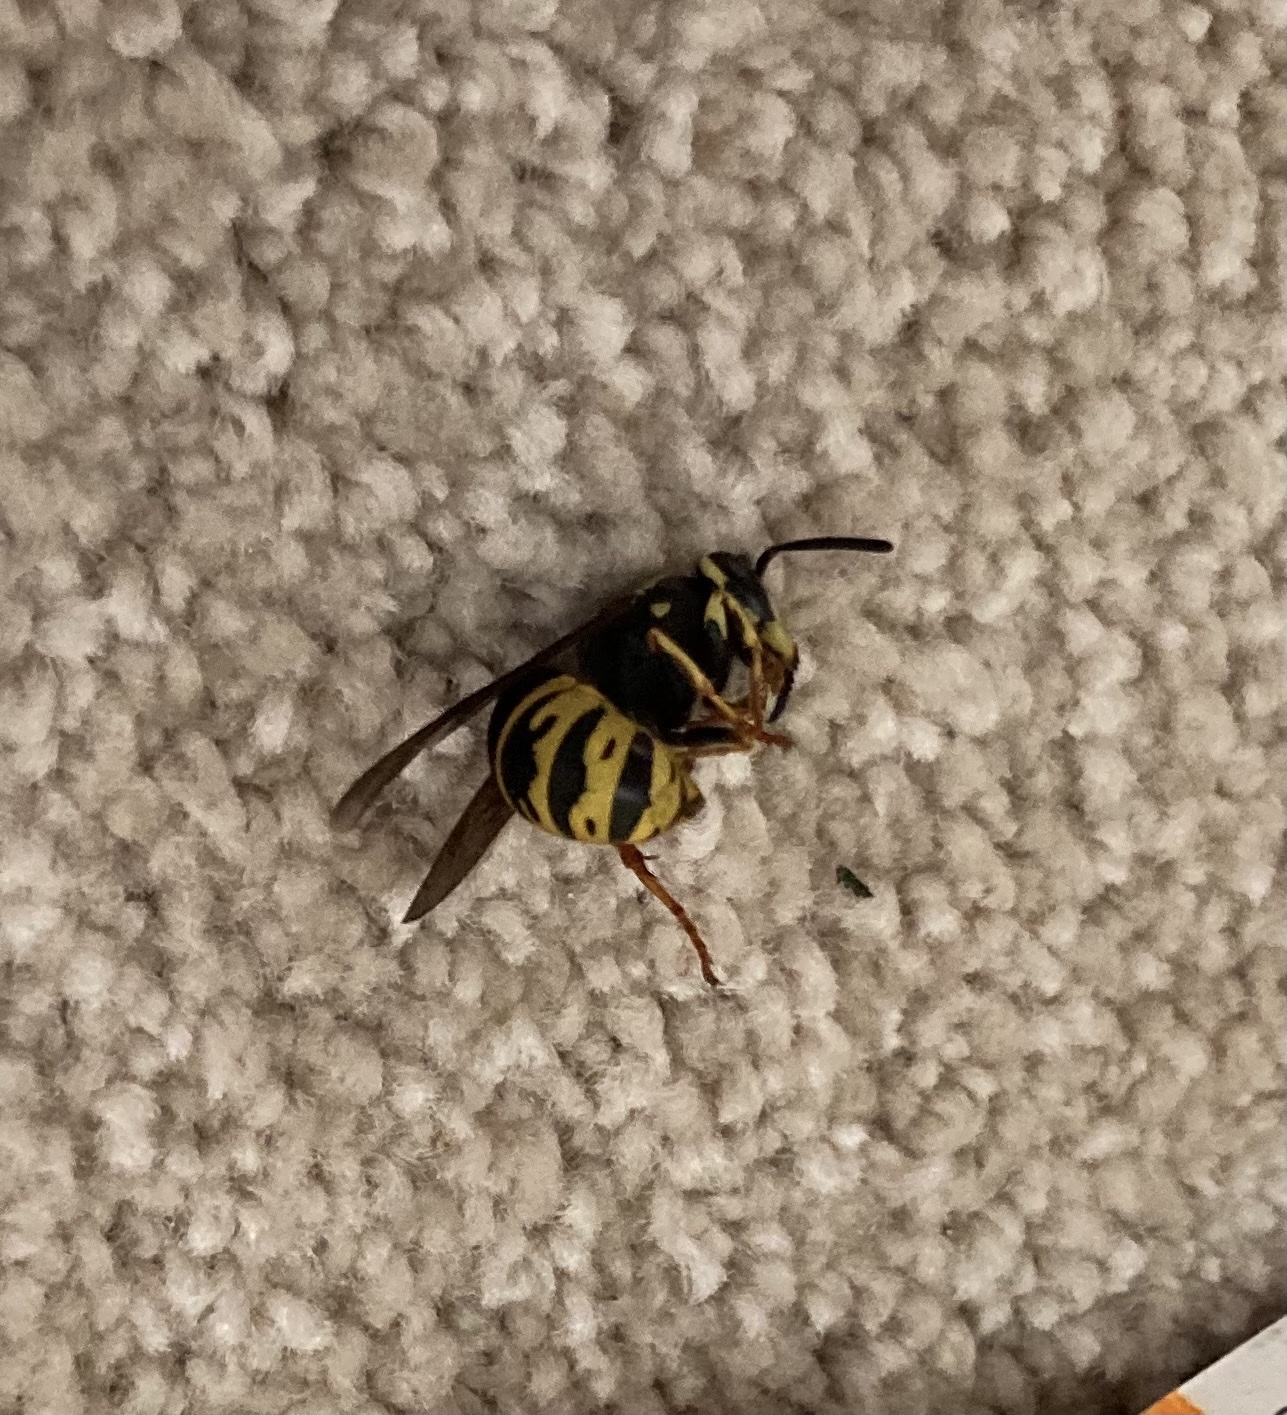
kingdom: Animalia
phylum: Arthropoda
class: Insecta
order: Hymenoptera
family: Vespidae
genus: Vespula
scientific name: Vespula vidua
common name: Widow yellowjacket
